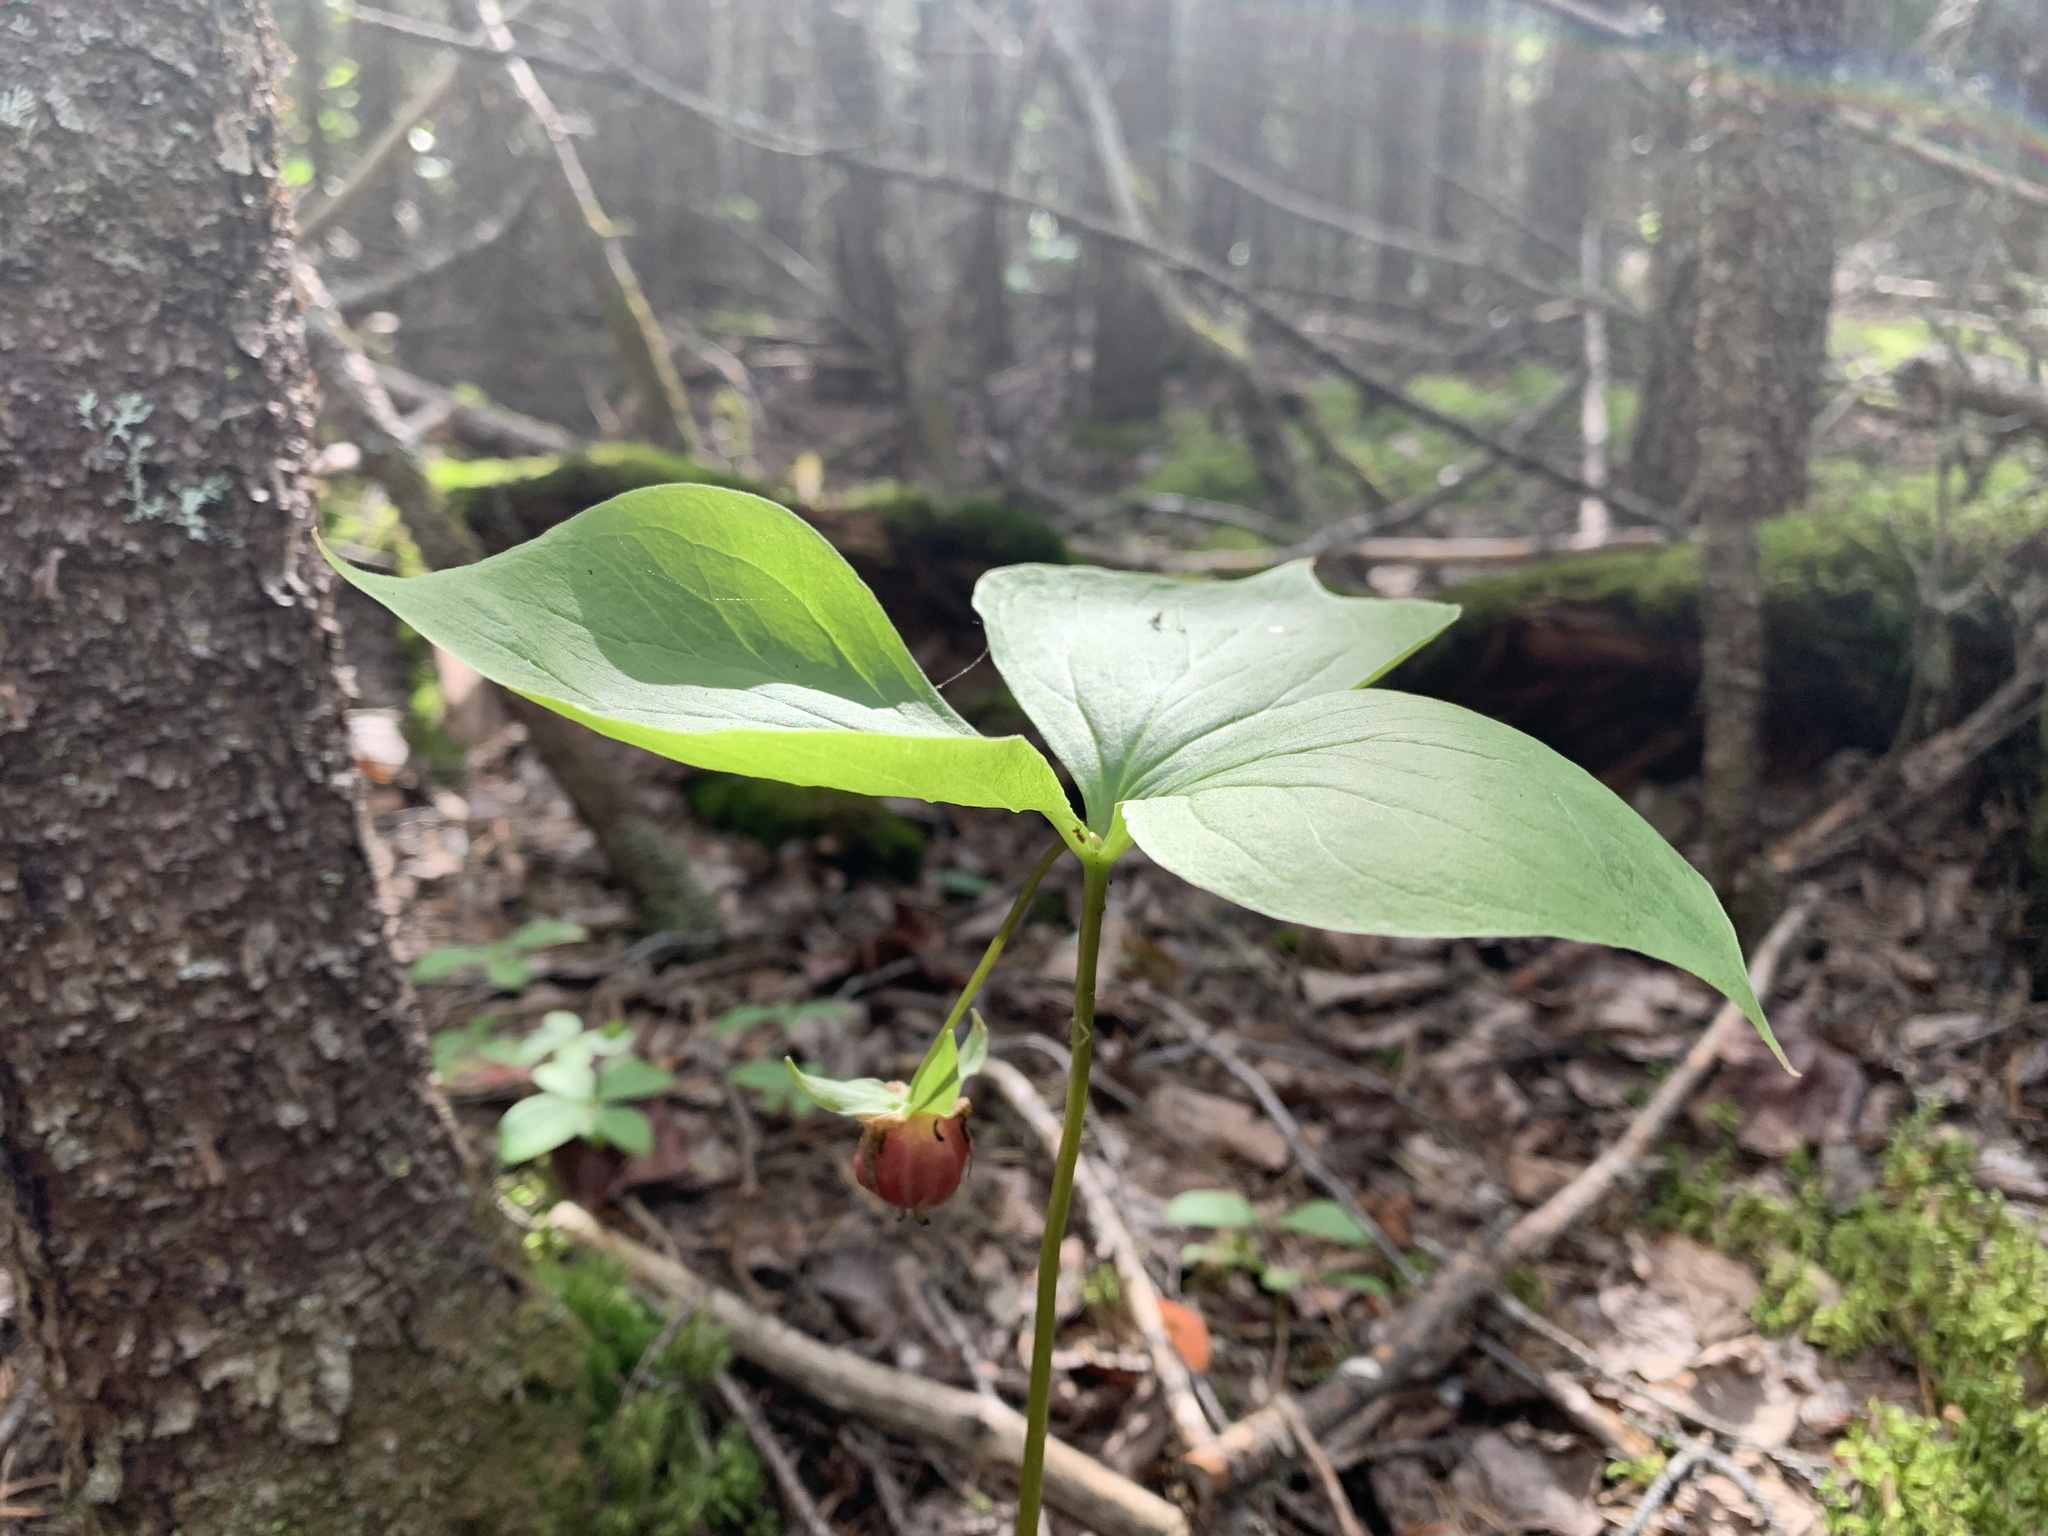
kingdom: Plantae
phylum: Tracheophyta
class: Liliopsida
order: Liliales
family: Melanthiaceae
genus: Trillium
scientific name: Trillium cernuum
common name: Nodding trillium
